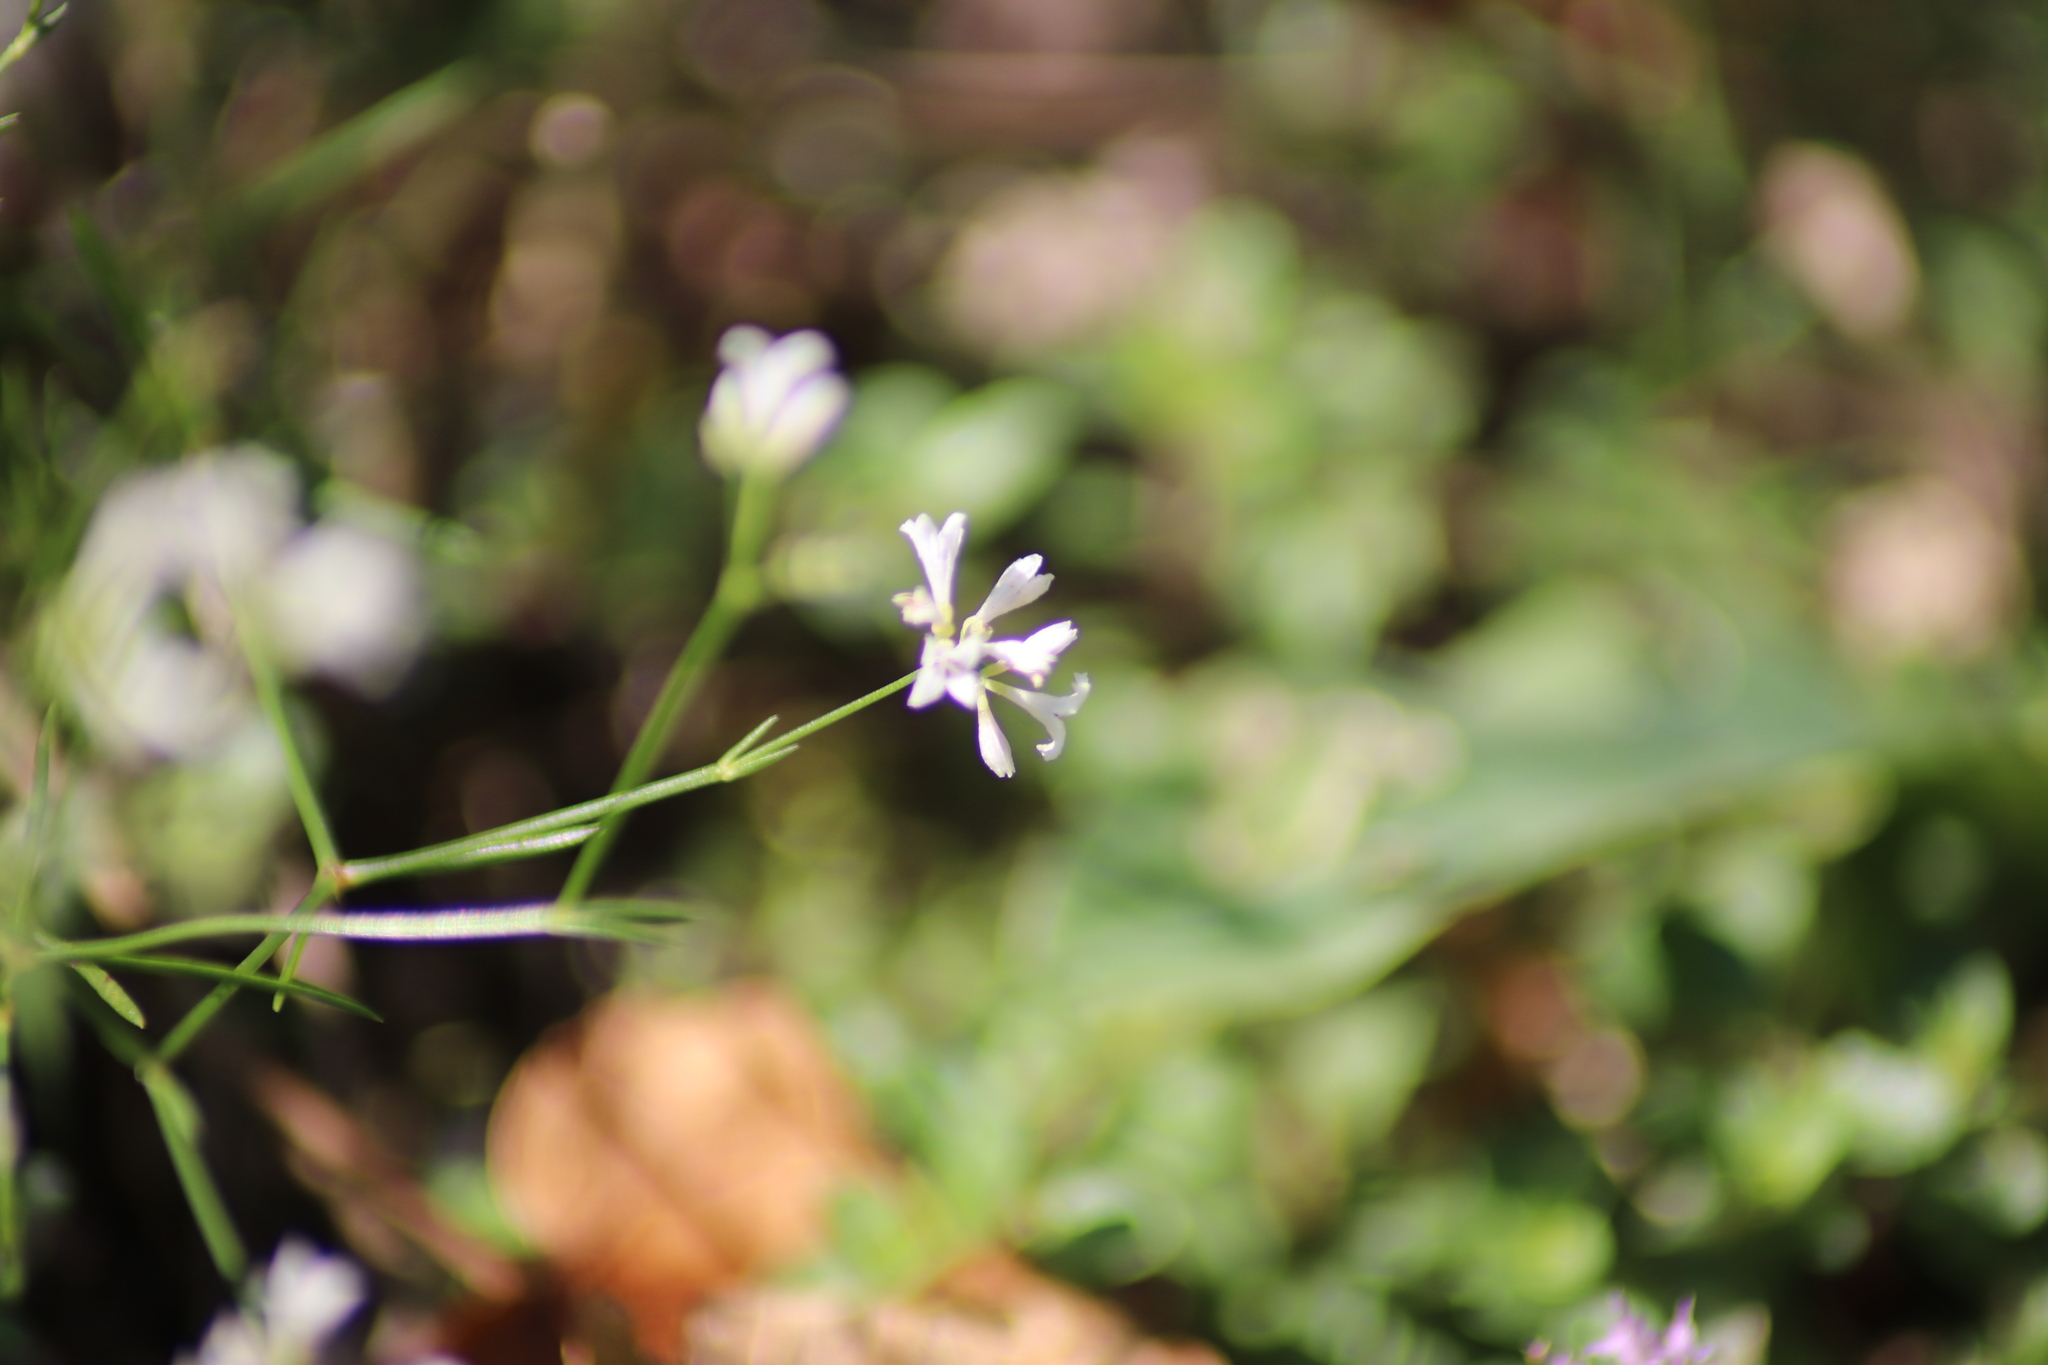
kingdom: Plantae
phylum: Tracheophyta
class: Magnoliopsida
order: Gentianales
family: Rubiaceae
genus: Cynanchica
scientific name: Cynanchica pyrenaica
